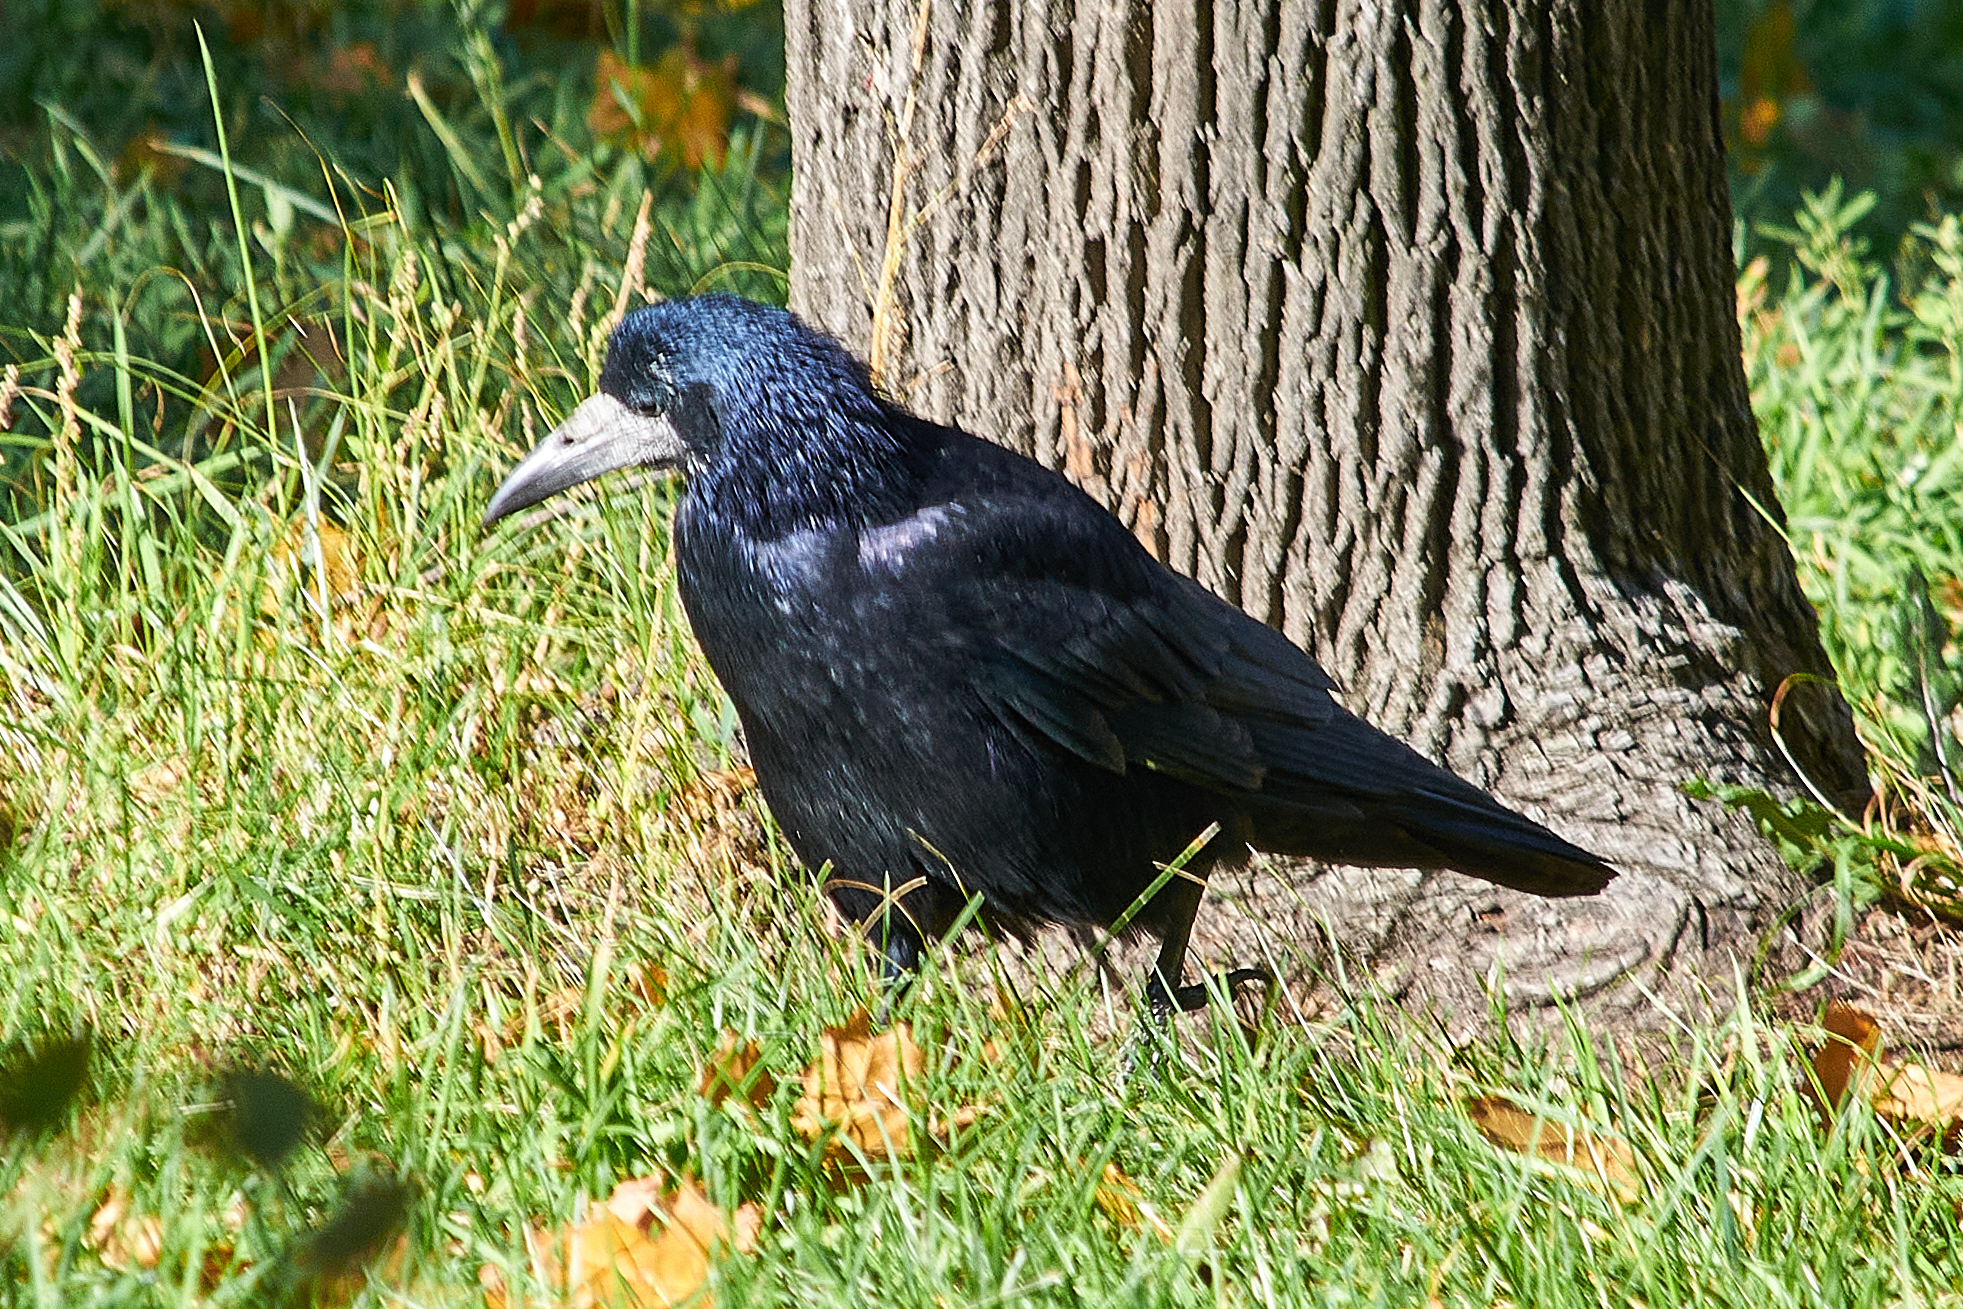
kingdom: Animalia
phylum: Chordata
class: Aves
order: Passeriformes
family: Corvidae
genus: Corvus
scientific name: Corvus frugilegus
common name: Rook
